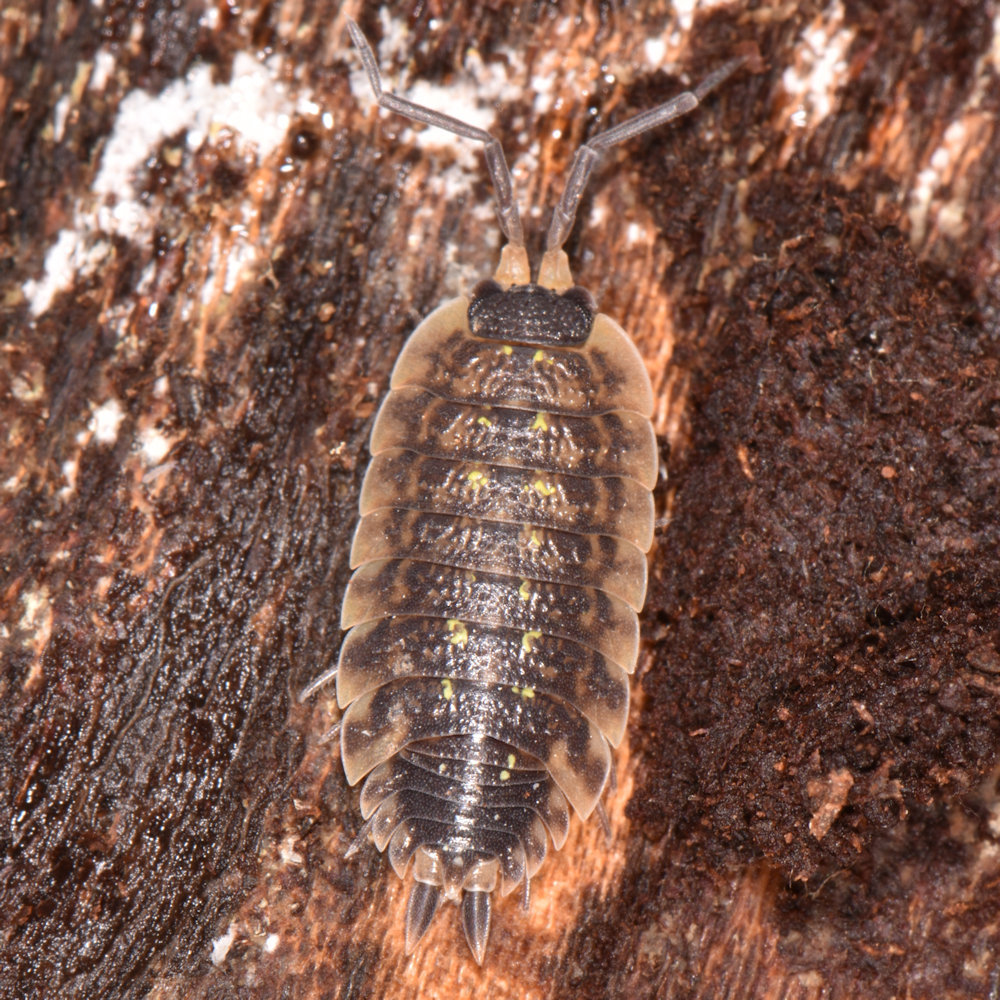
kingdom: Animalia
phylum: Arthropoda
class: Malacostraca
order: Isopoda
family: Porcellionidae
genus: Porcellio
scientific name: Porcellio spinicornis
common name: Painted woodlouse
